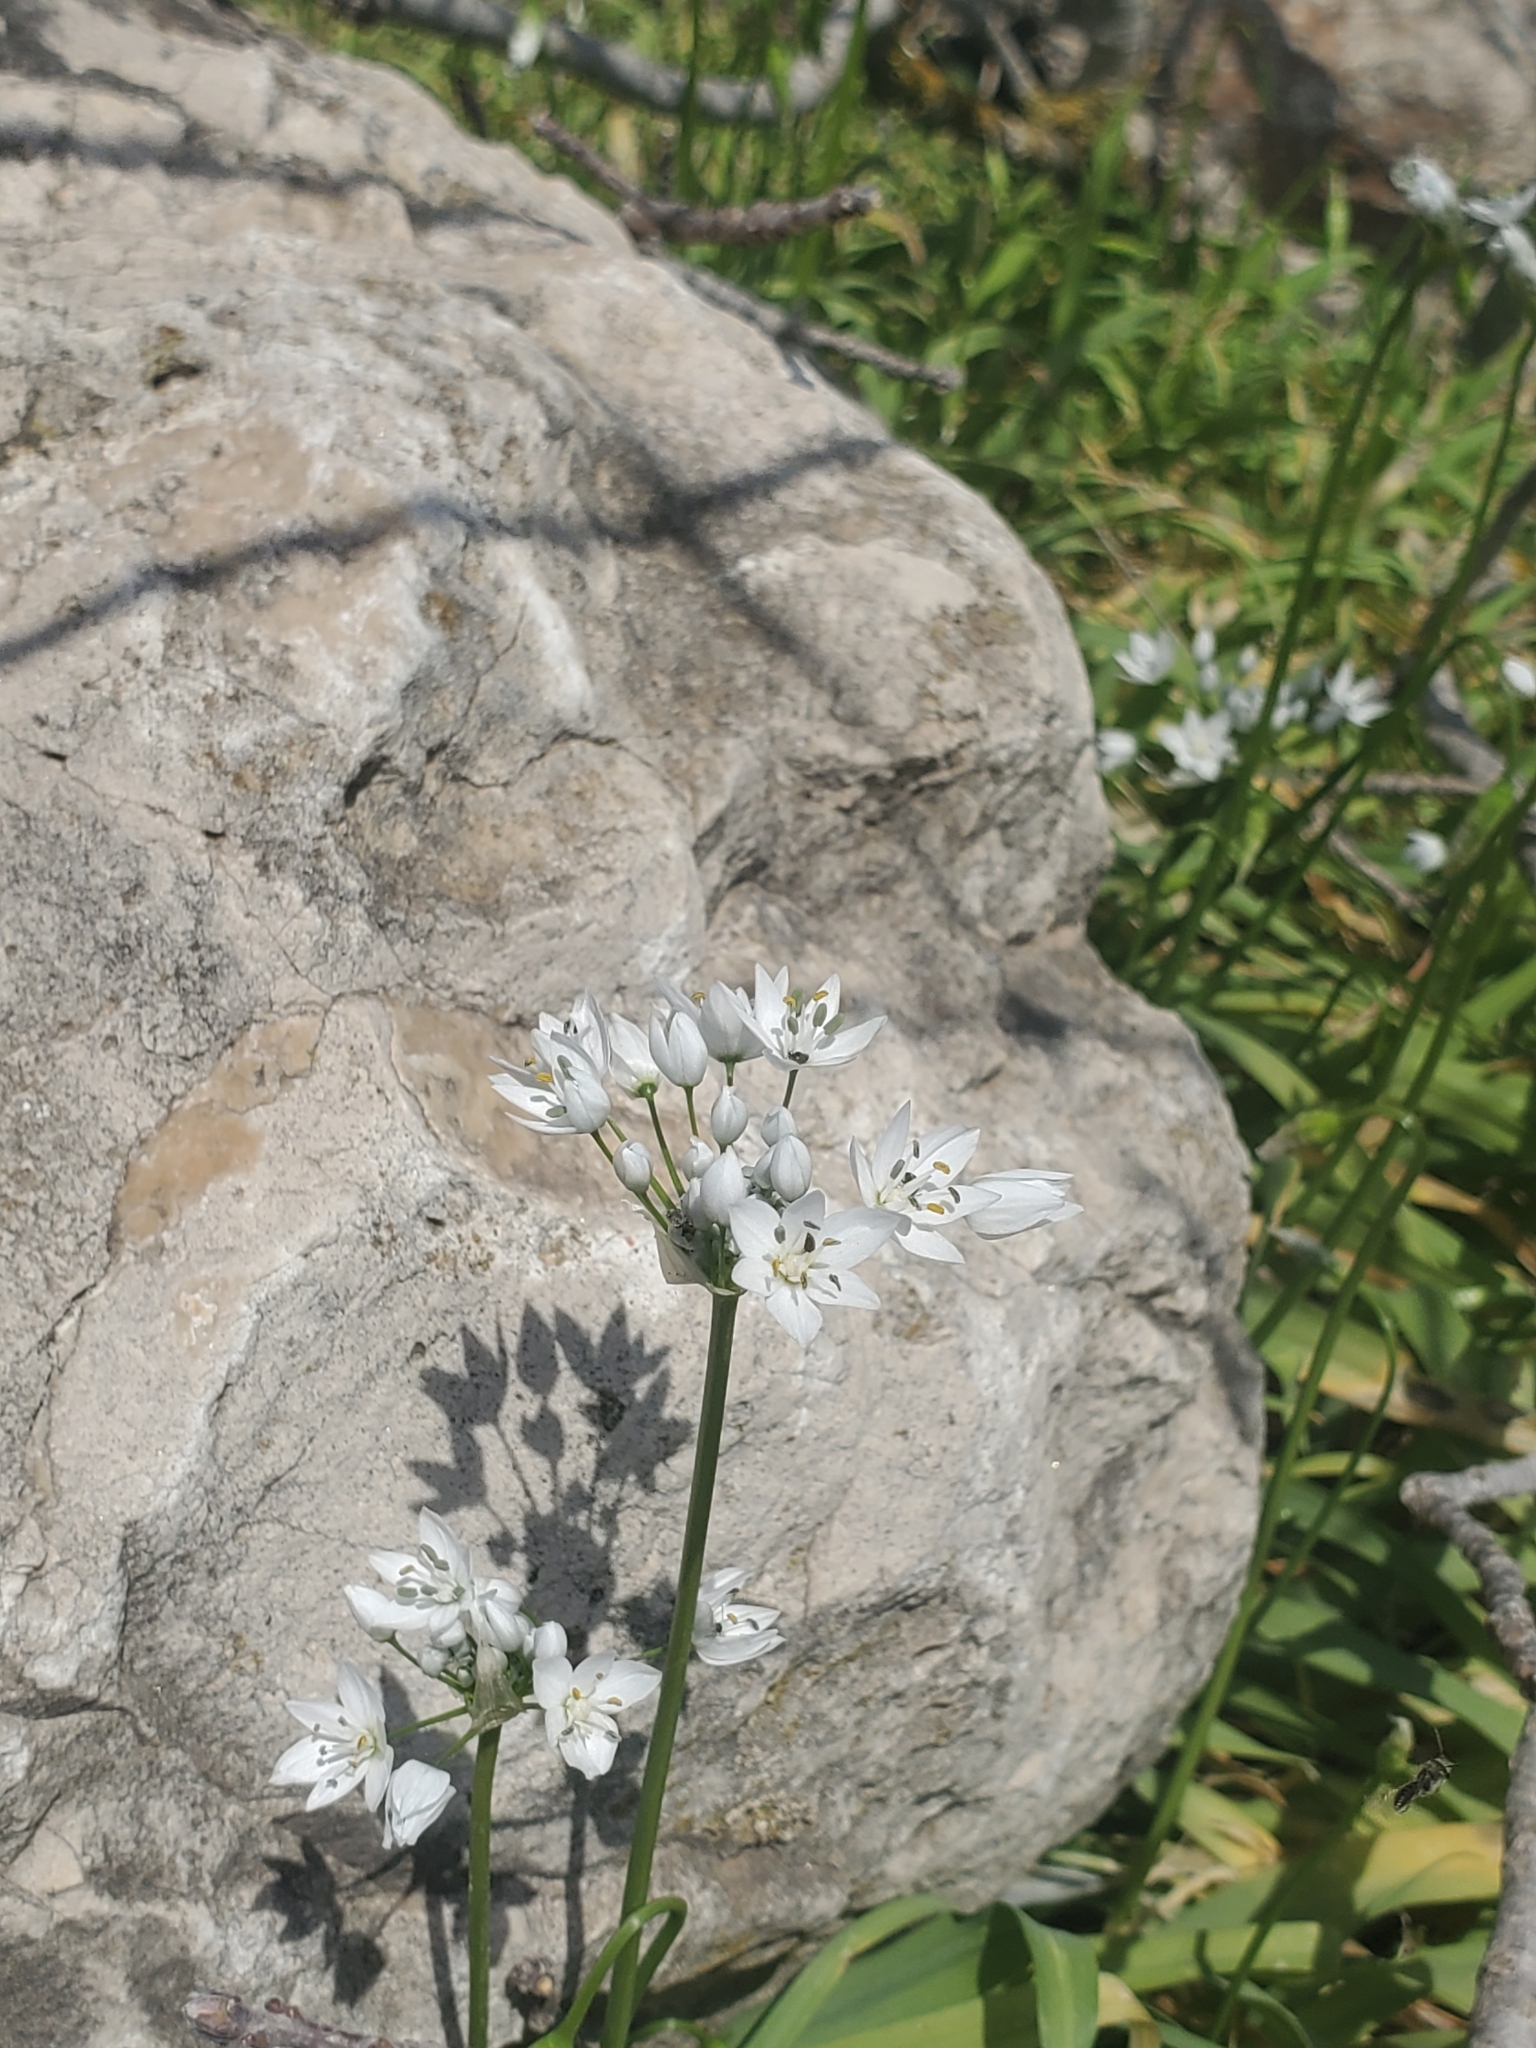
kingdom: Plantae
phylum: Tracheophyta
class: Liliopsida
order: Asparagales
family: Amaryllidaceae
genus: Allium
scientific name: Allium neapolitanum
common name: Neapolitan garlic
